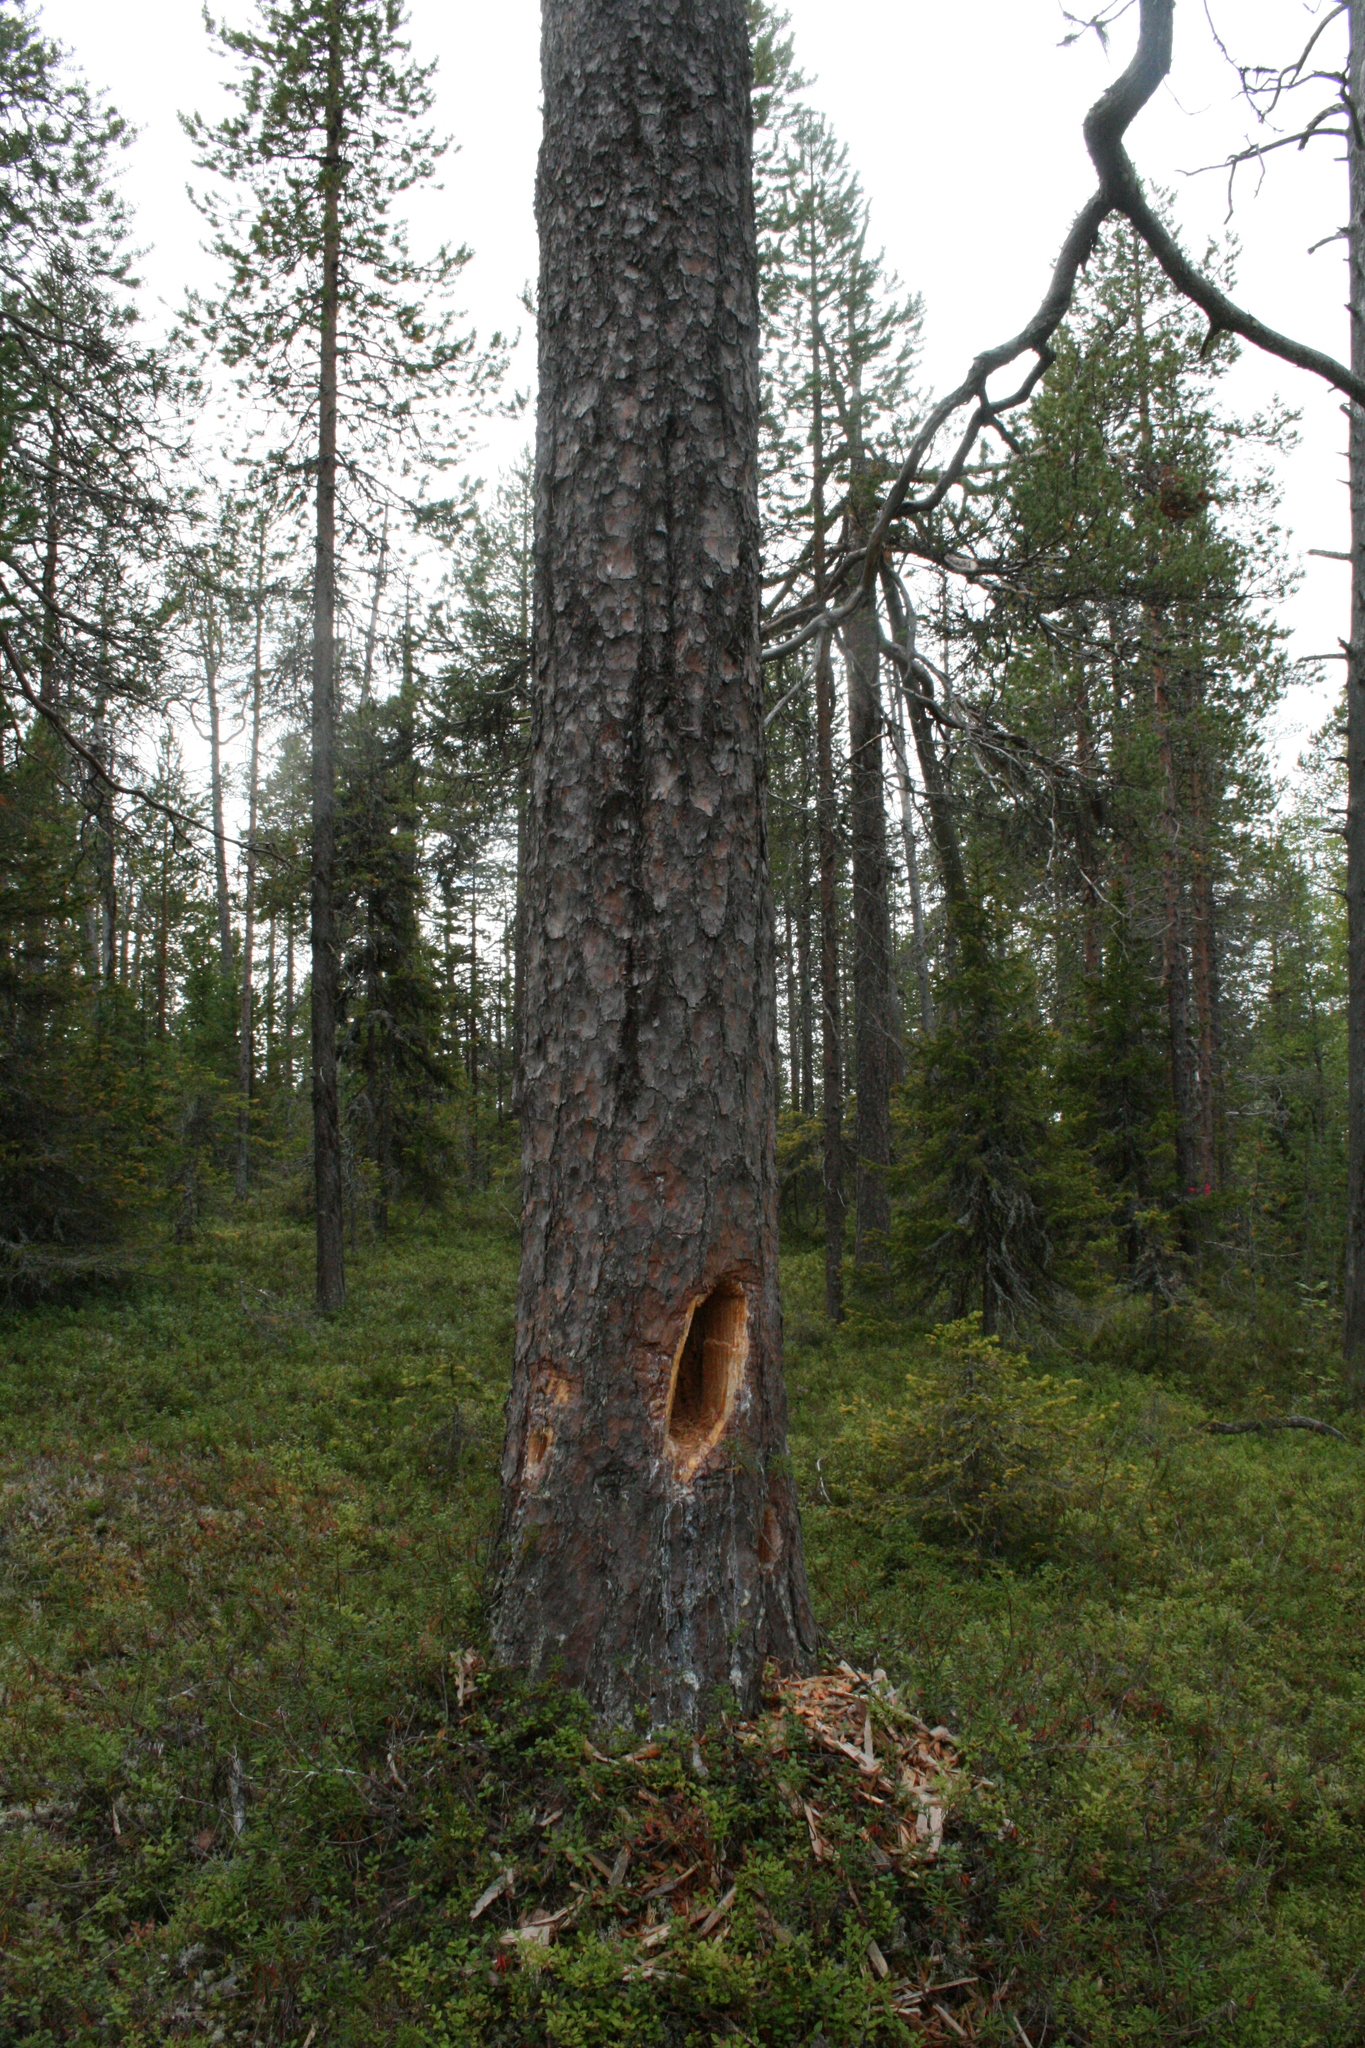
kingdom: Animalia
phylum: Chordata
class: Aves
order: Piciformes
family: Picidae
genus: Dryocopus
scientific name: Dryocopus martius
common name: Black woodpecker
